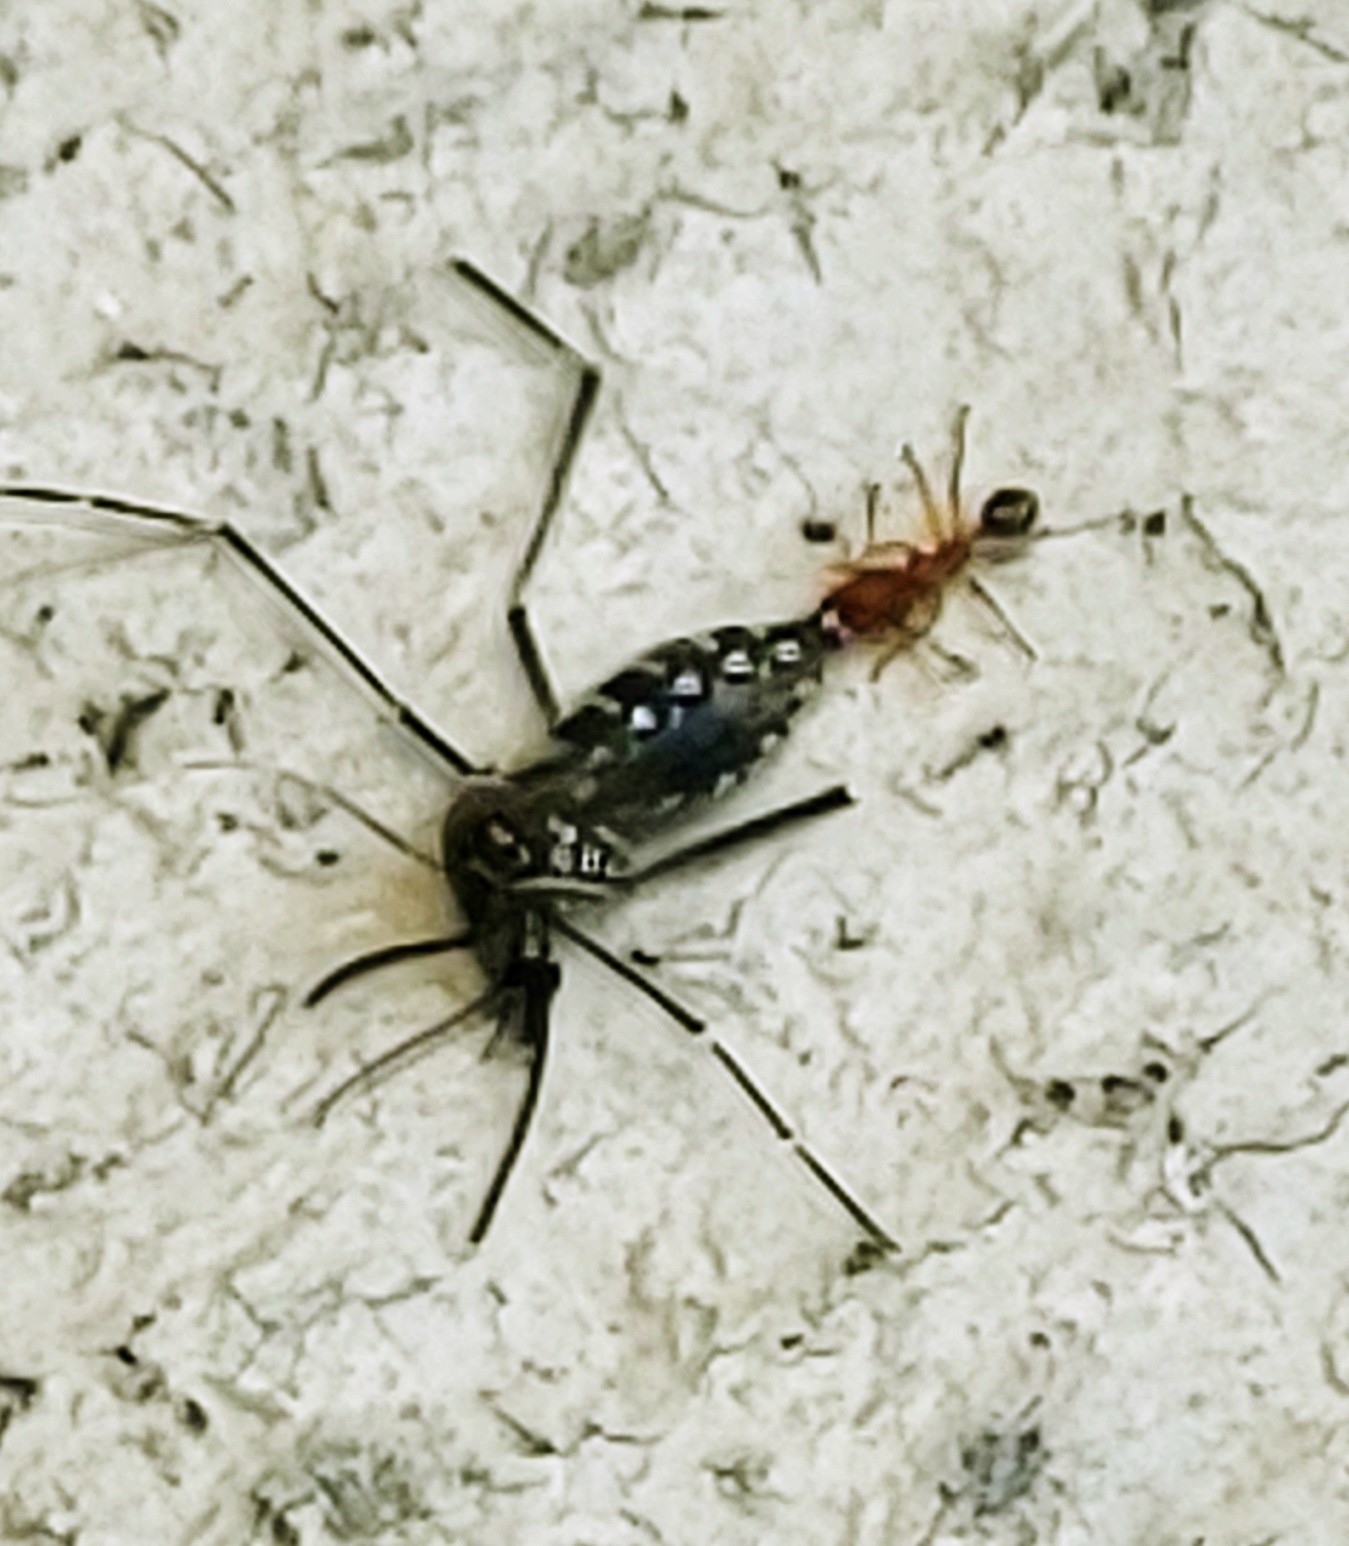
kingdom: Animalia
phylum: Arthropoda
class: Insecta
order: Diptera
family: Culicidae
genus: Aedes
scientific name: Aedes aegypti
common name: Yellow fever mosquito
